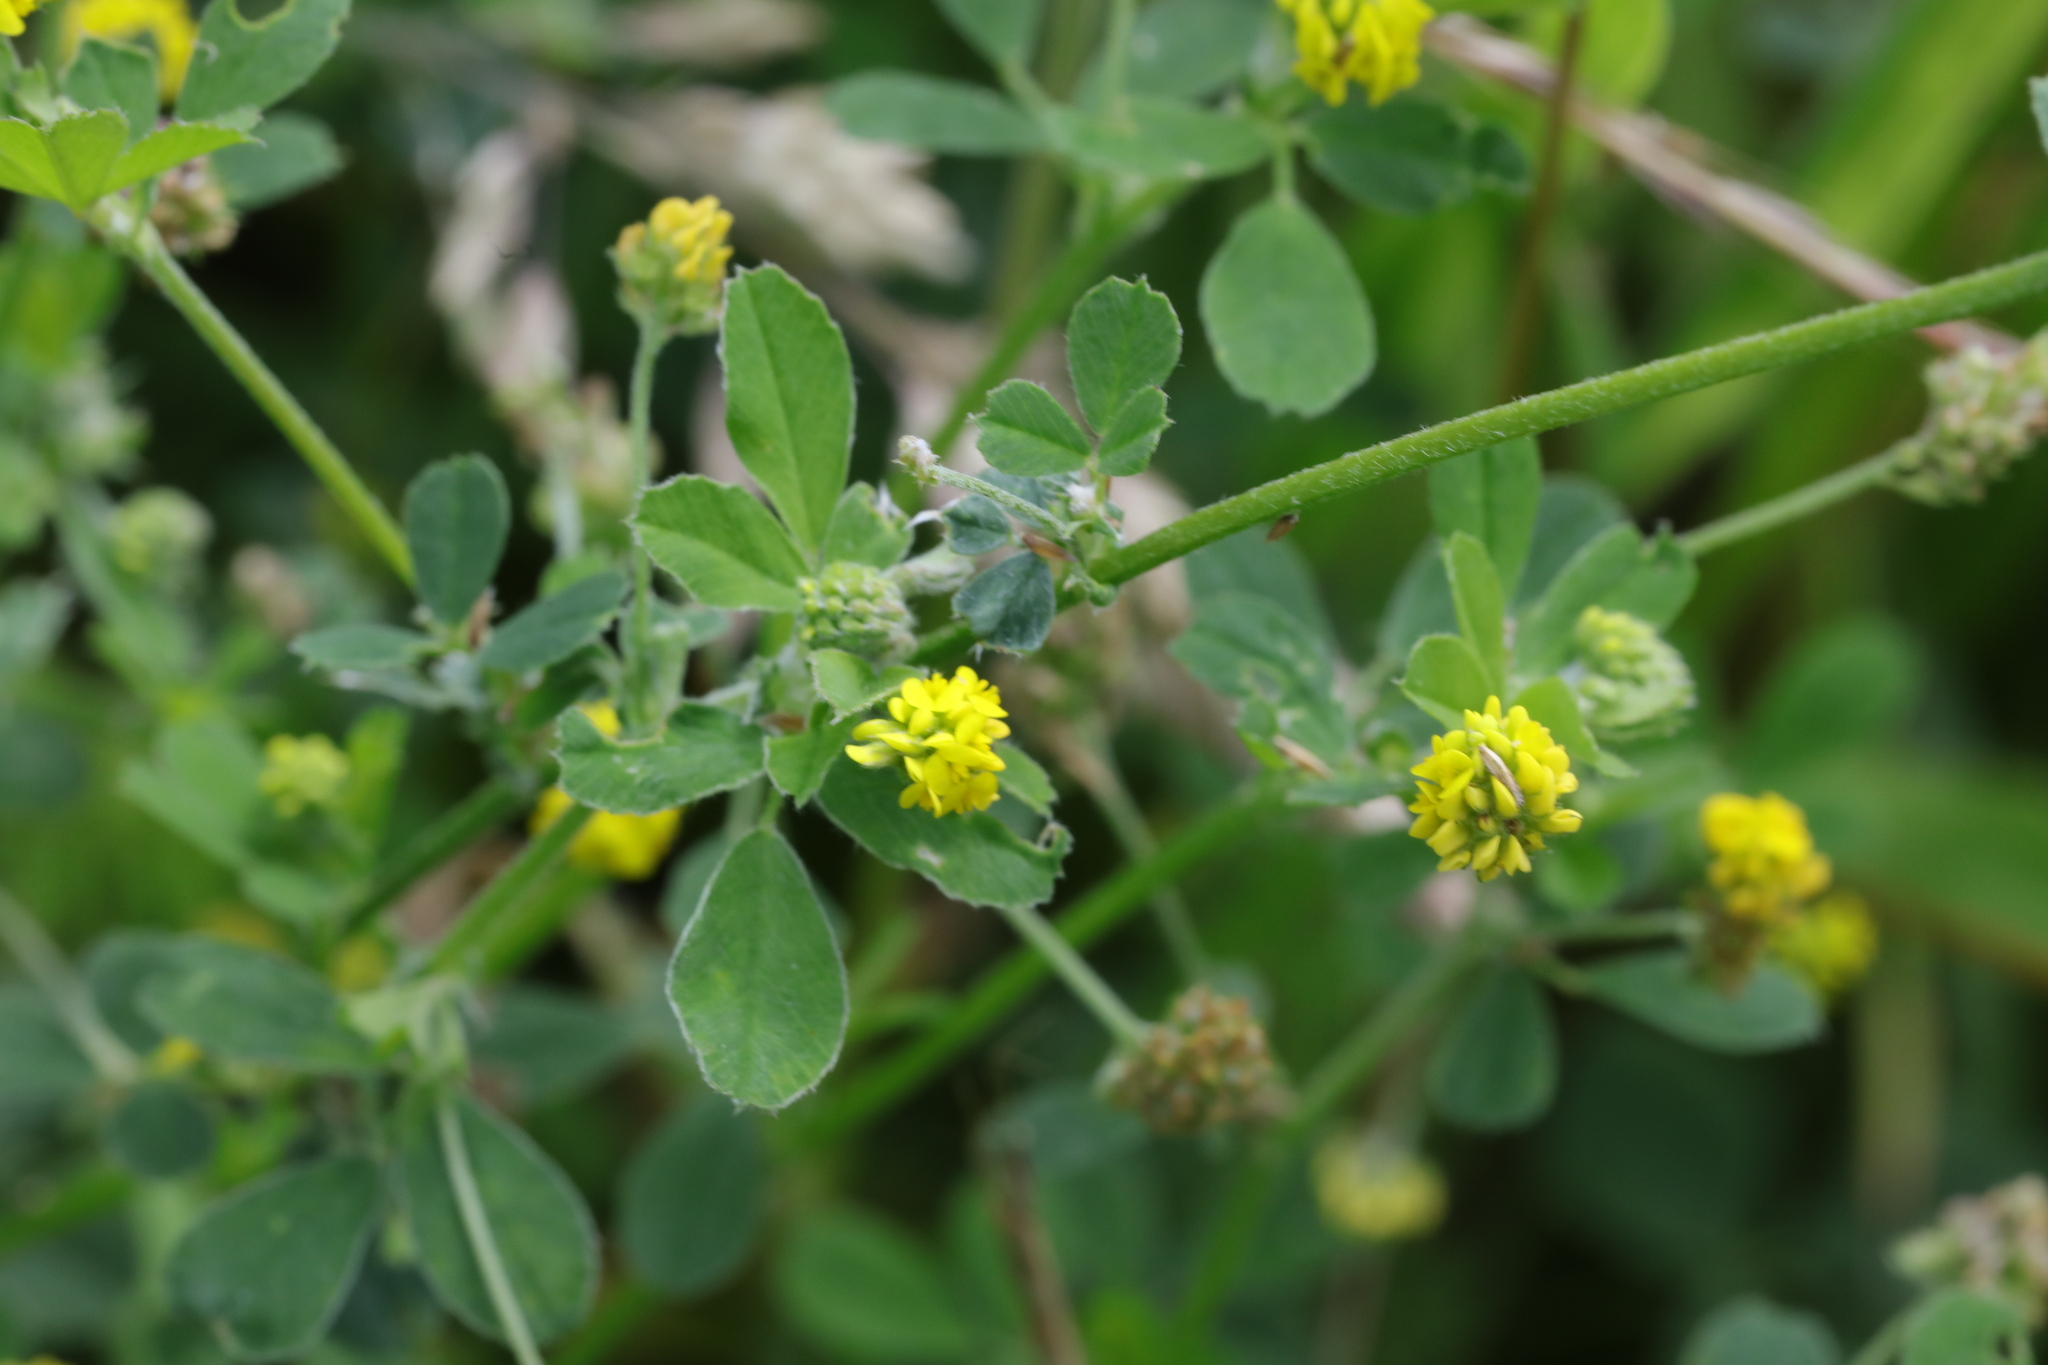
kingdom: Plantae
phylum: Tracheophyta
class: Magnoliopsida
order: Fabales
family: Fabaceae
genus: Medicago
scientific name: Medicago lupulina
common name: Black medick
